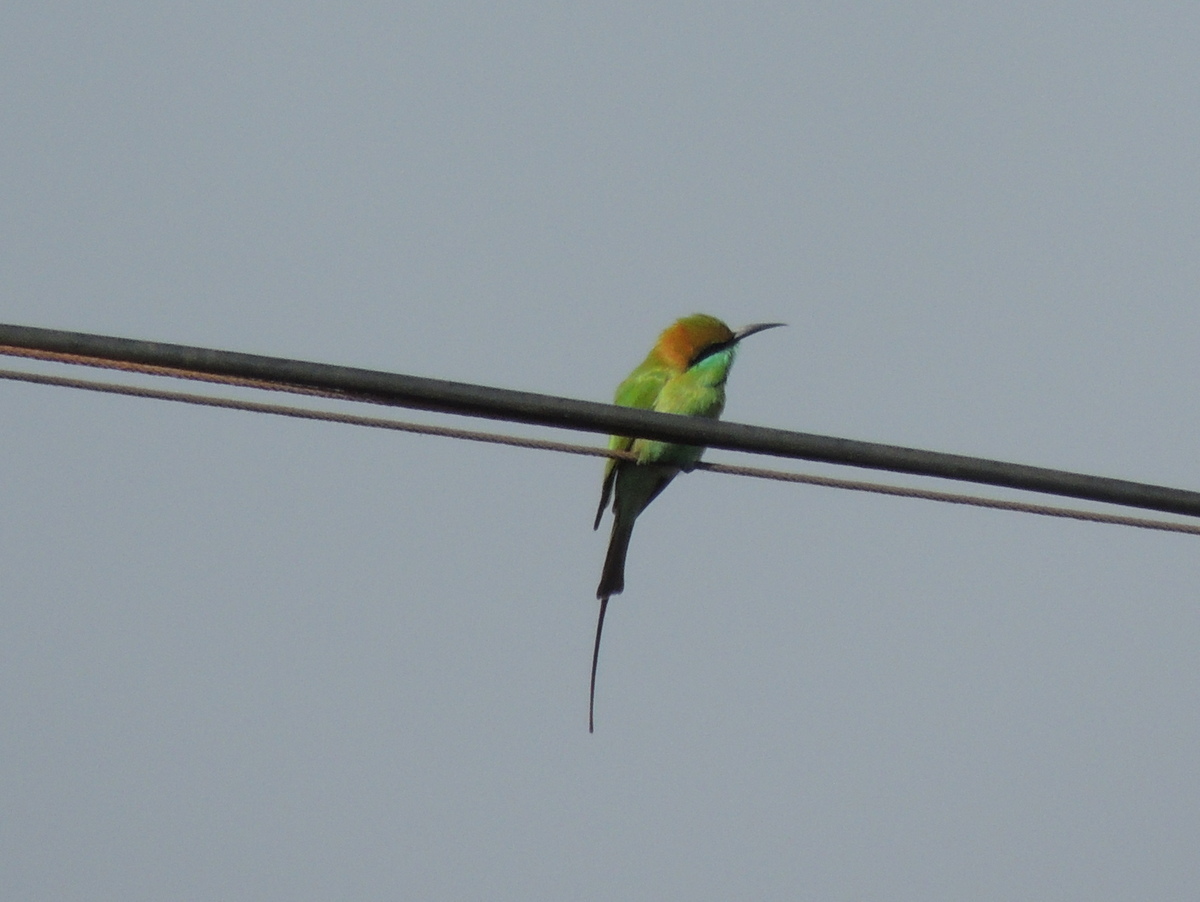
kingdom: Animalia
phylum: Chordata
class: Aves
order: Coraciiformes
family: Meropidae
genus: Merops
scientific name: Merops orientalis
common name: Green bee-eater
